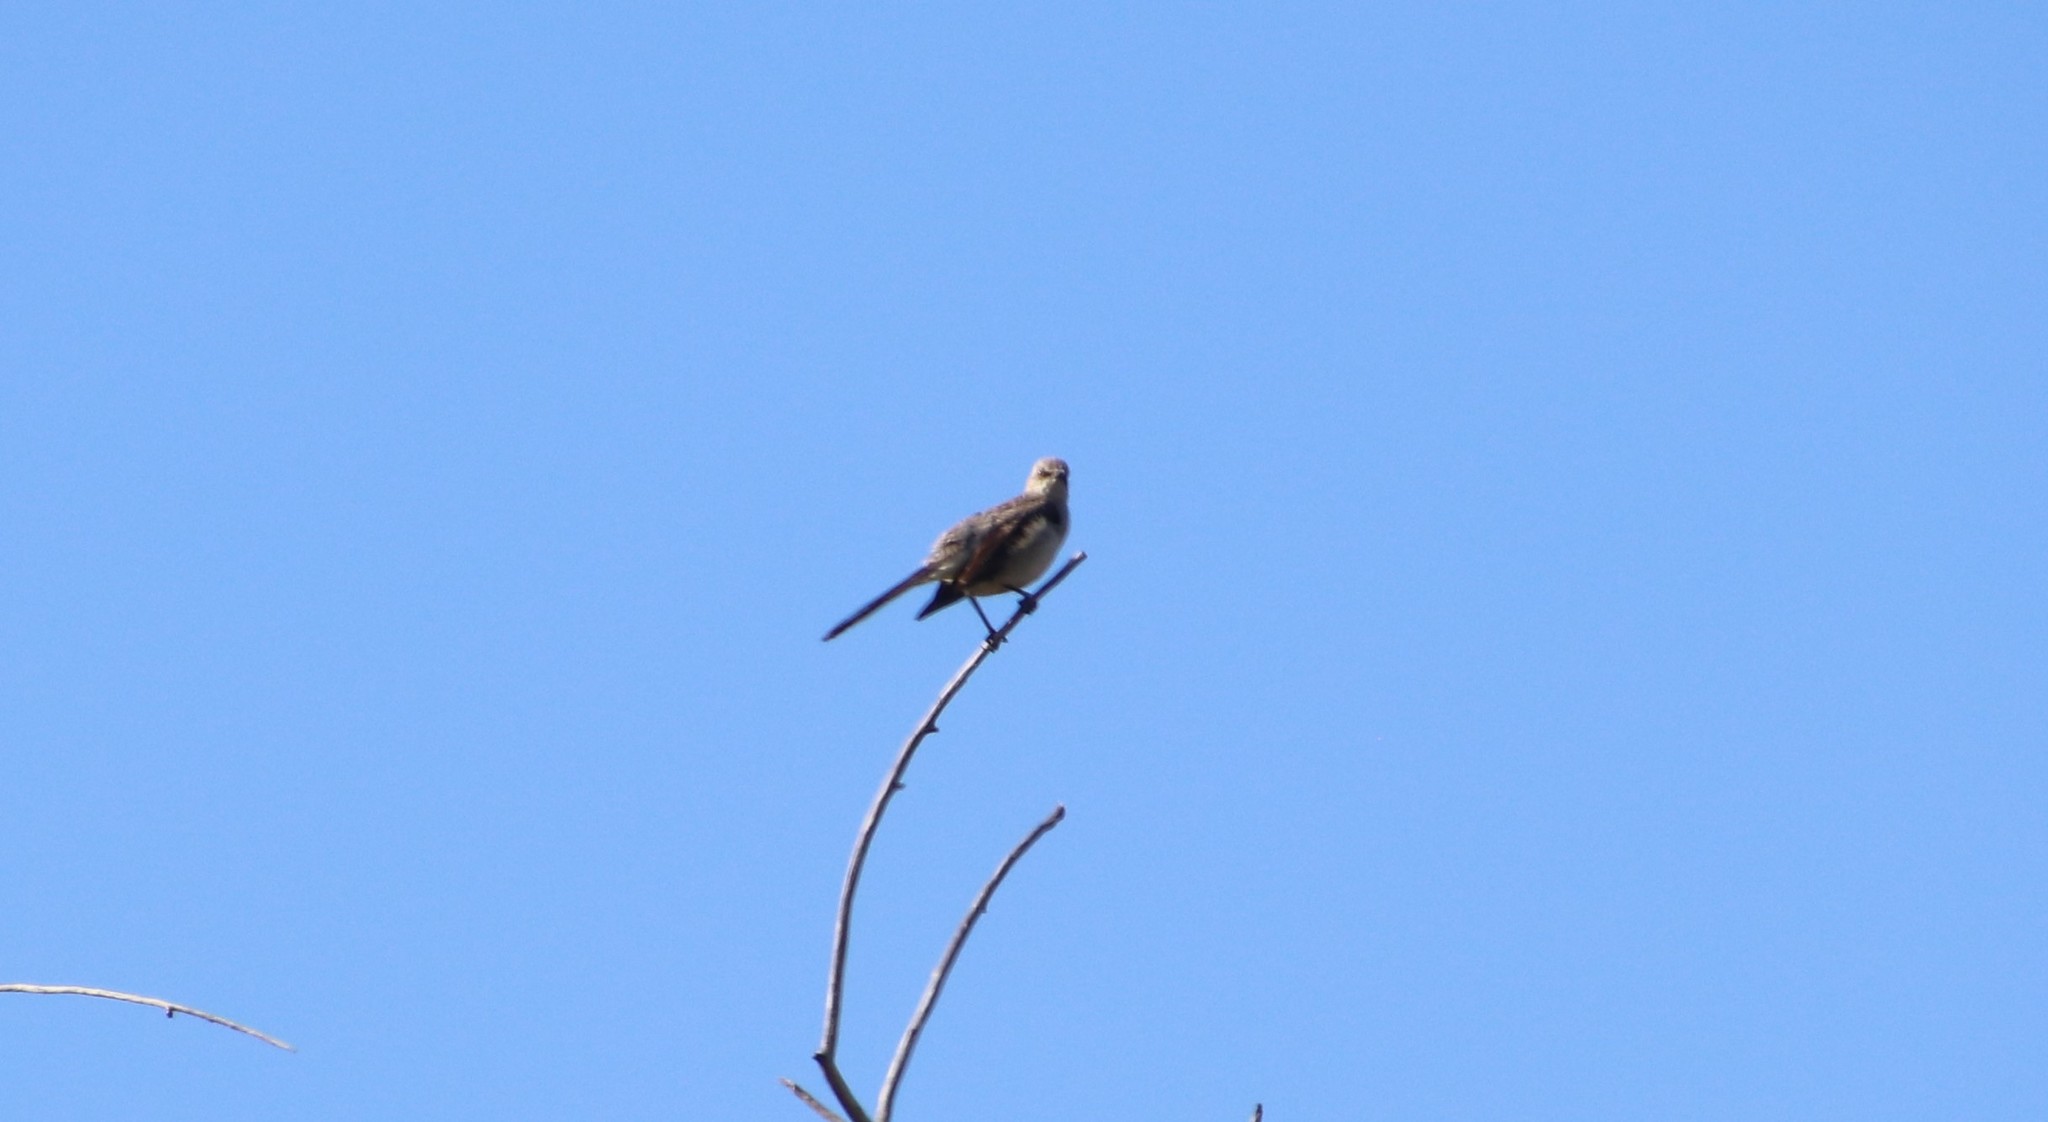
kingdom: Animalia
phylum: Chordata
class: Aves
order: Passeriformes
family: Mimidae
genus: Mimus
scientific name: Mimus polyglottos
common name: Northern mockingbird
